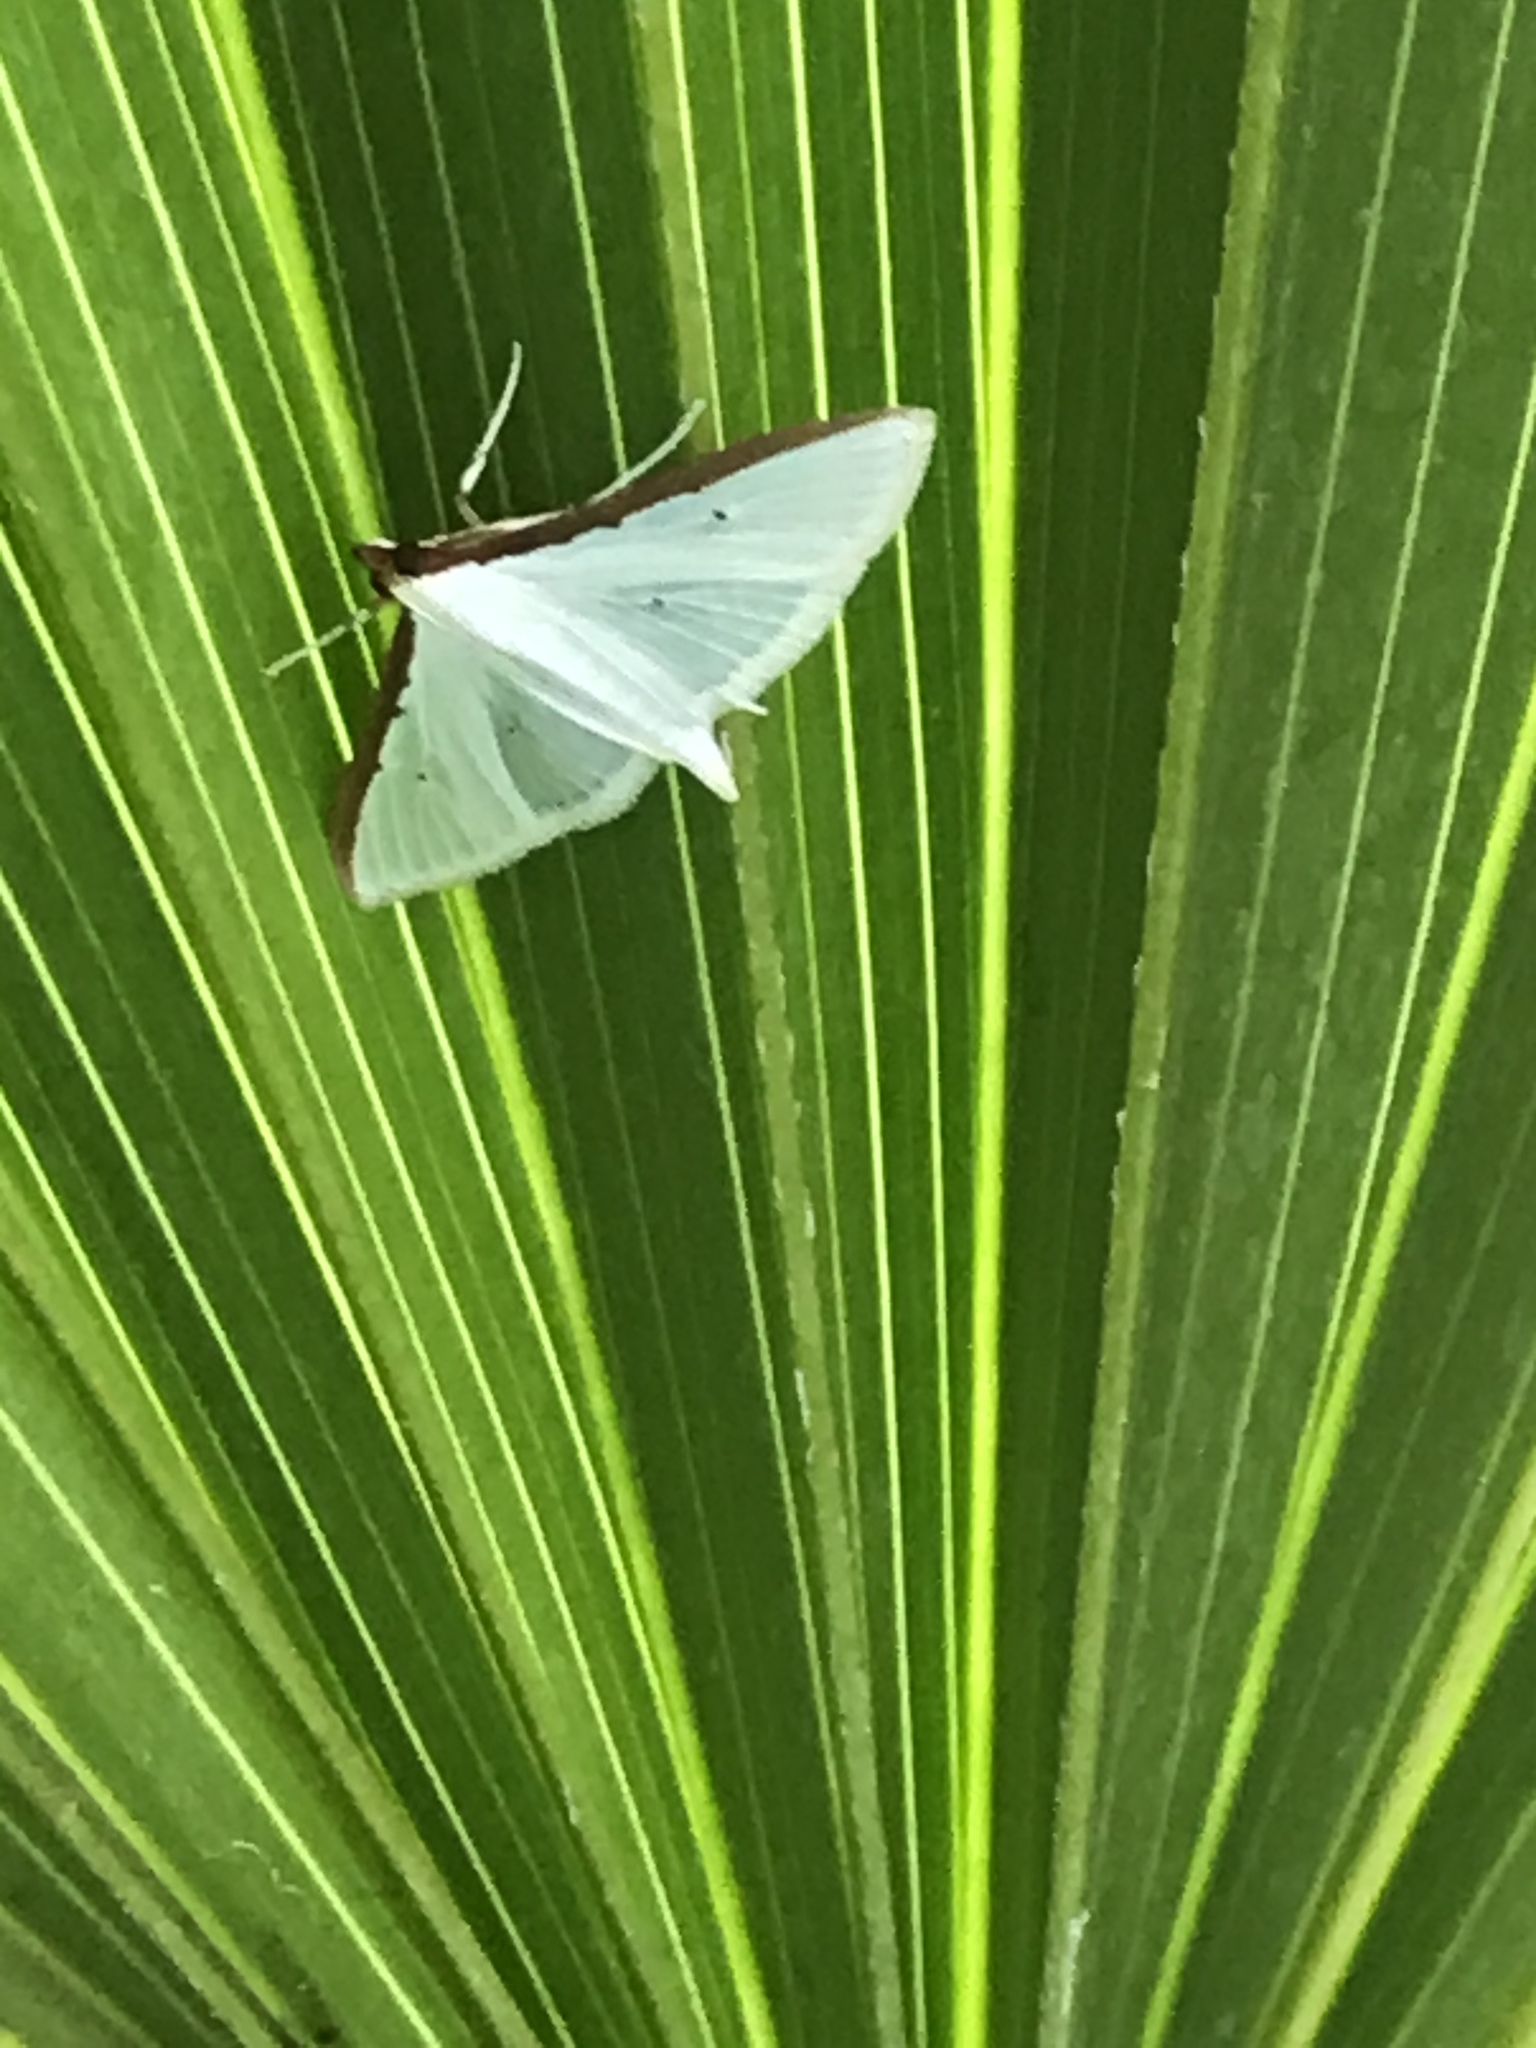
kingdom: Animalia
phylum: Arthropoda
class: Insecta
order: Lepidoptera
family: Crambidae
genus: Palpita
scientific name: Palpita quadristigmalis
